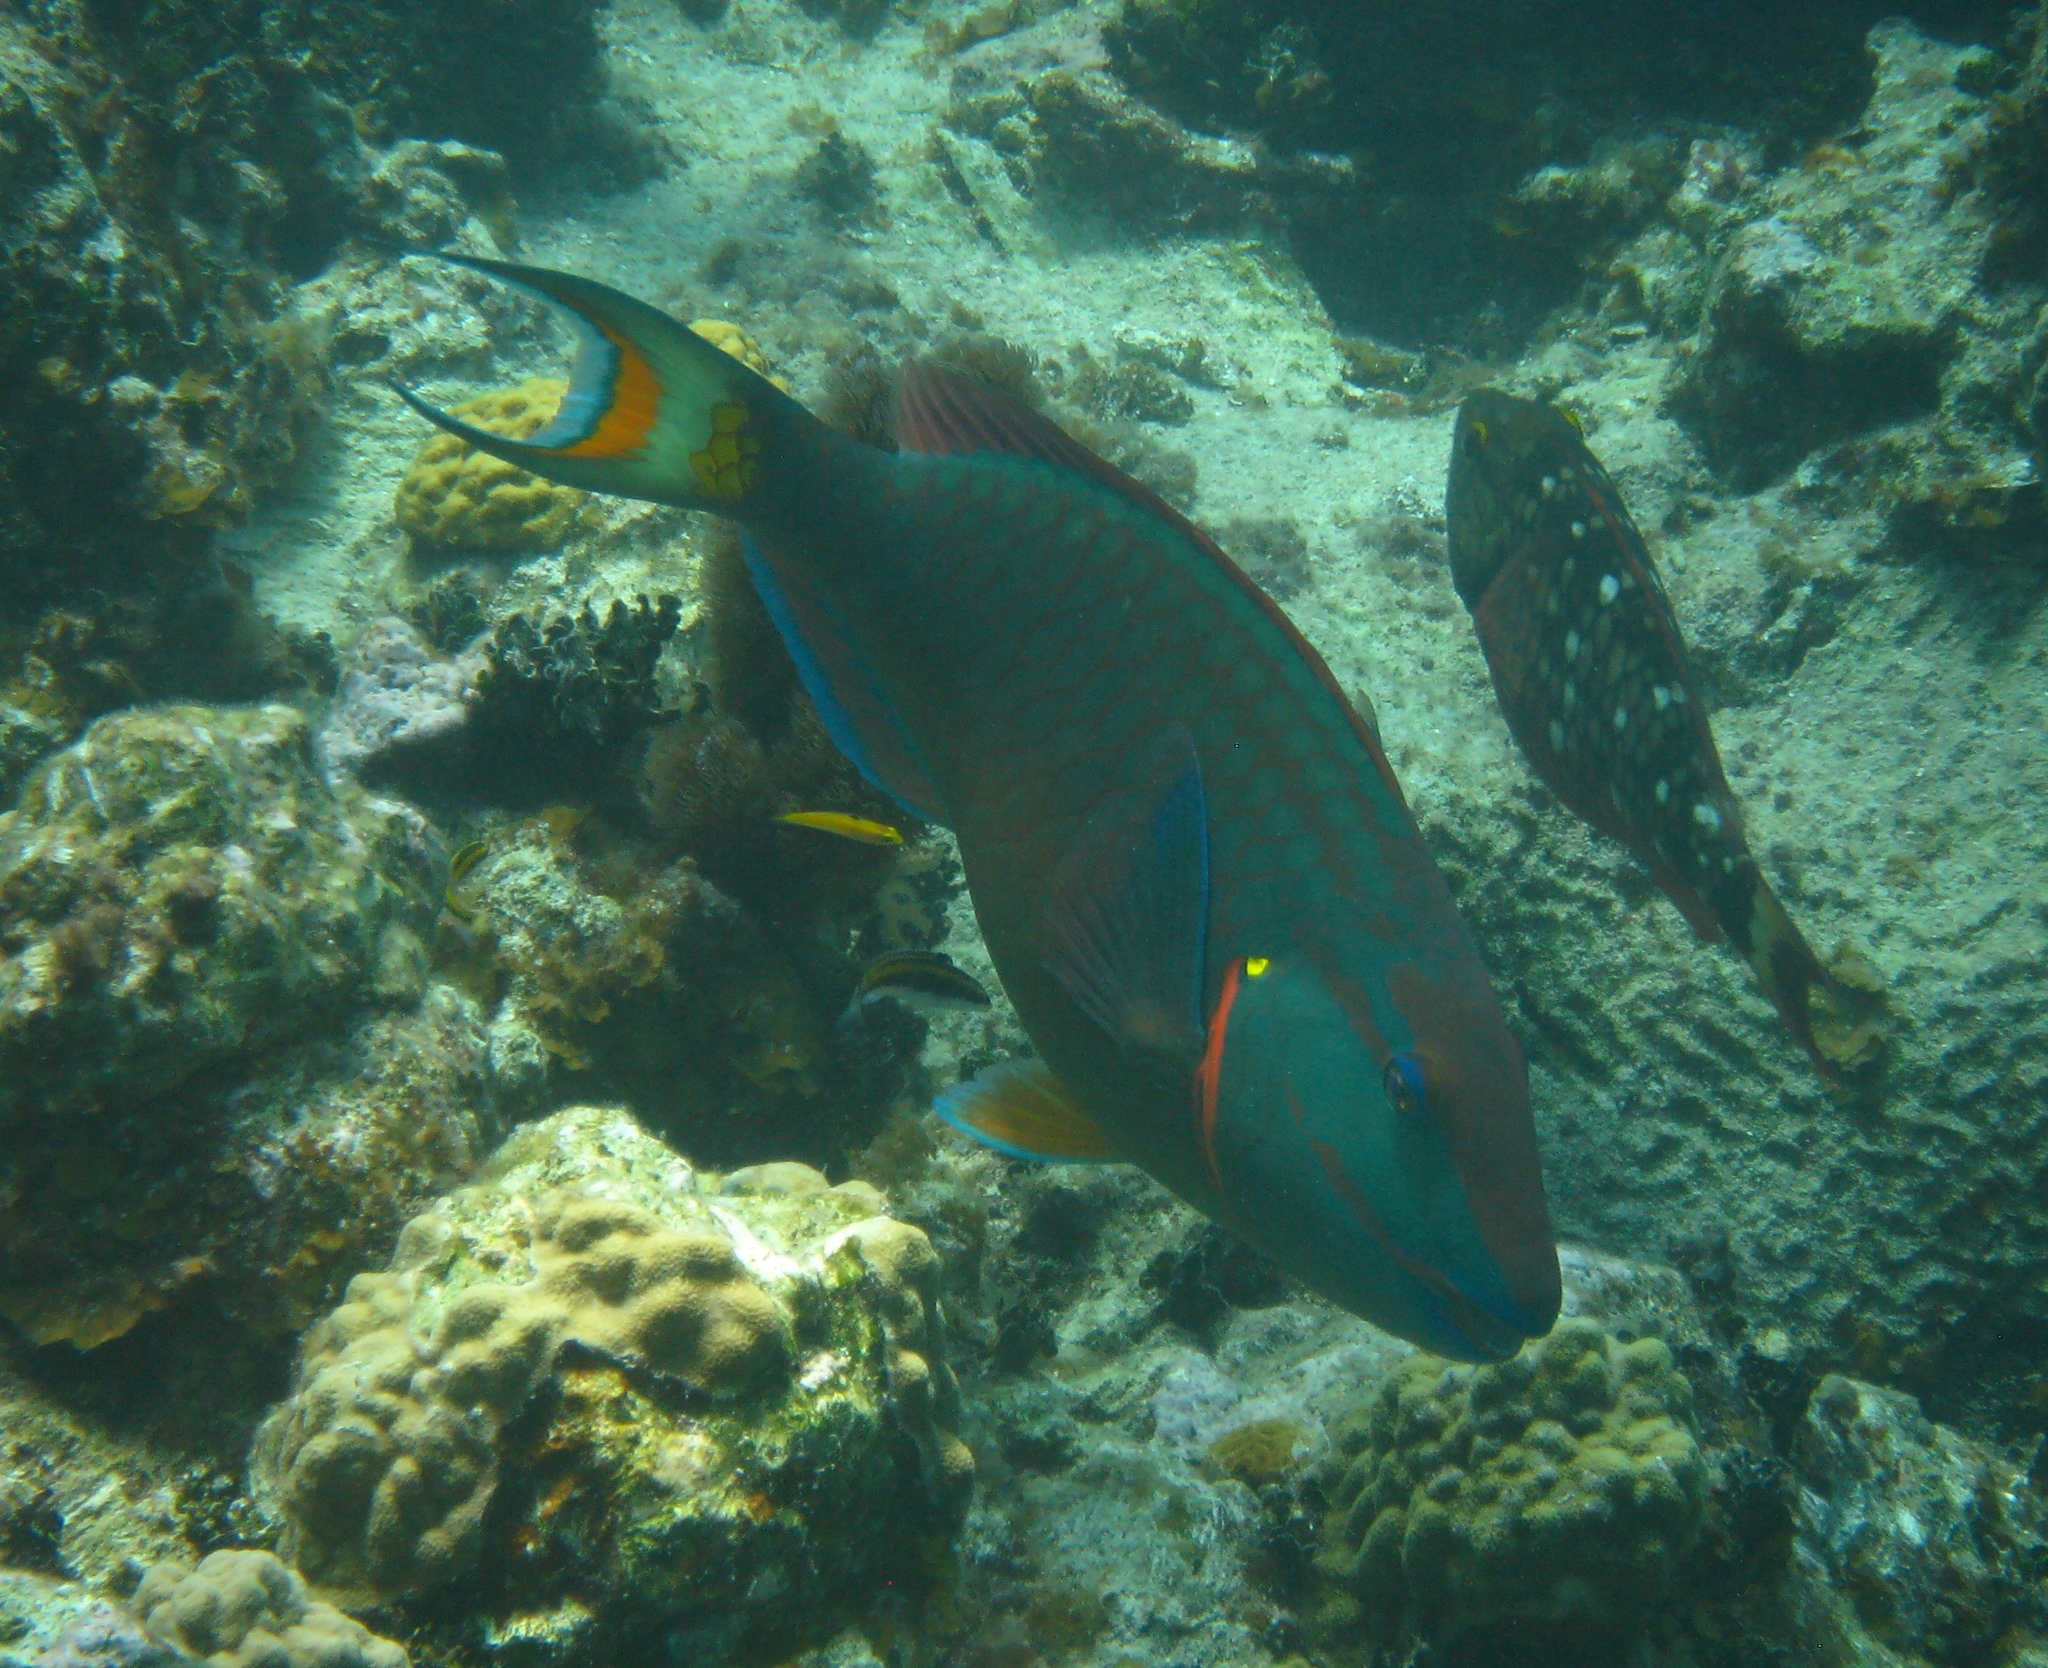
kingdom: Animalia
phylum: Chordata
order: Perciformes
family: Scaridae
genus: Sparisoma
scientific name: Sparisoma viride
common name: Stoplight parrotfish
